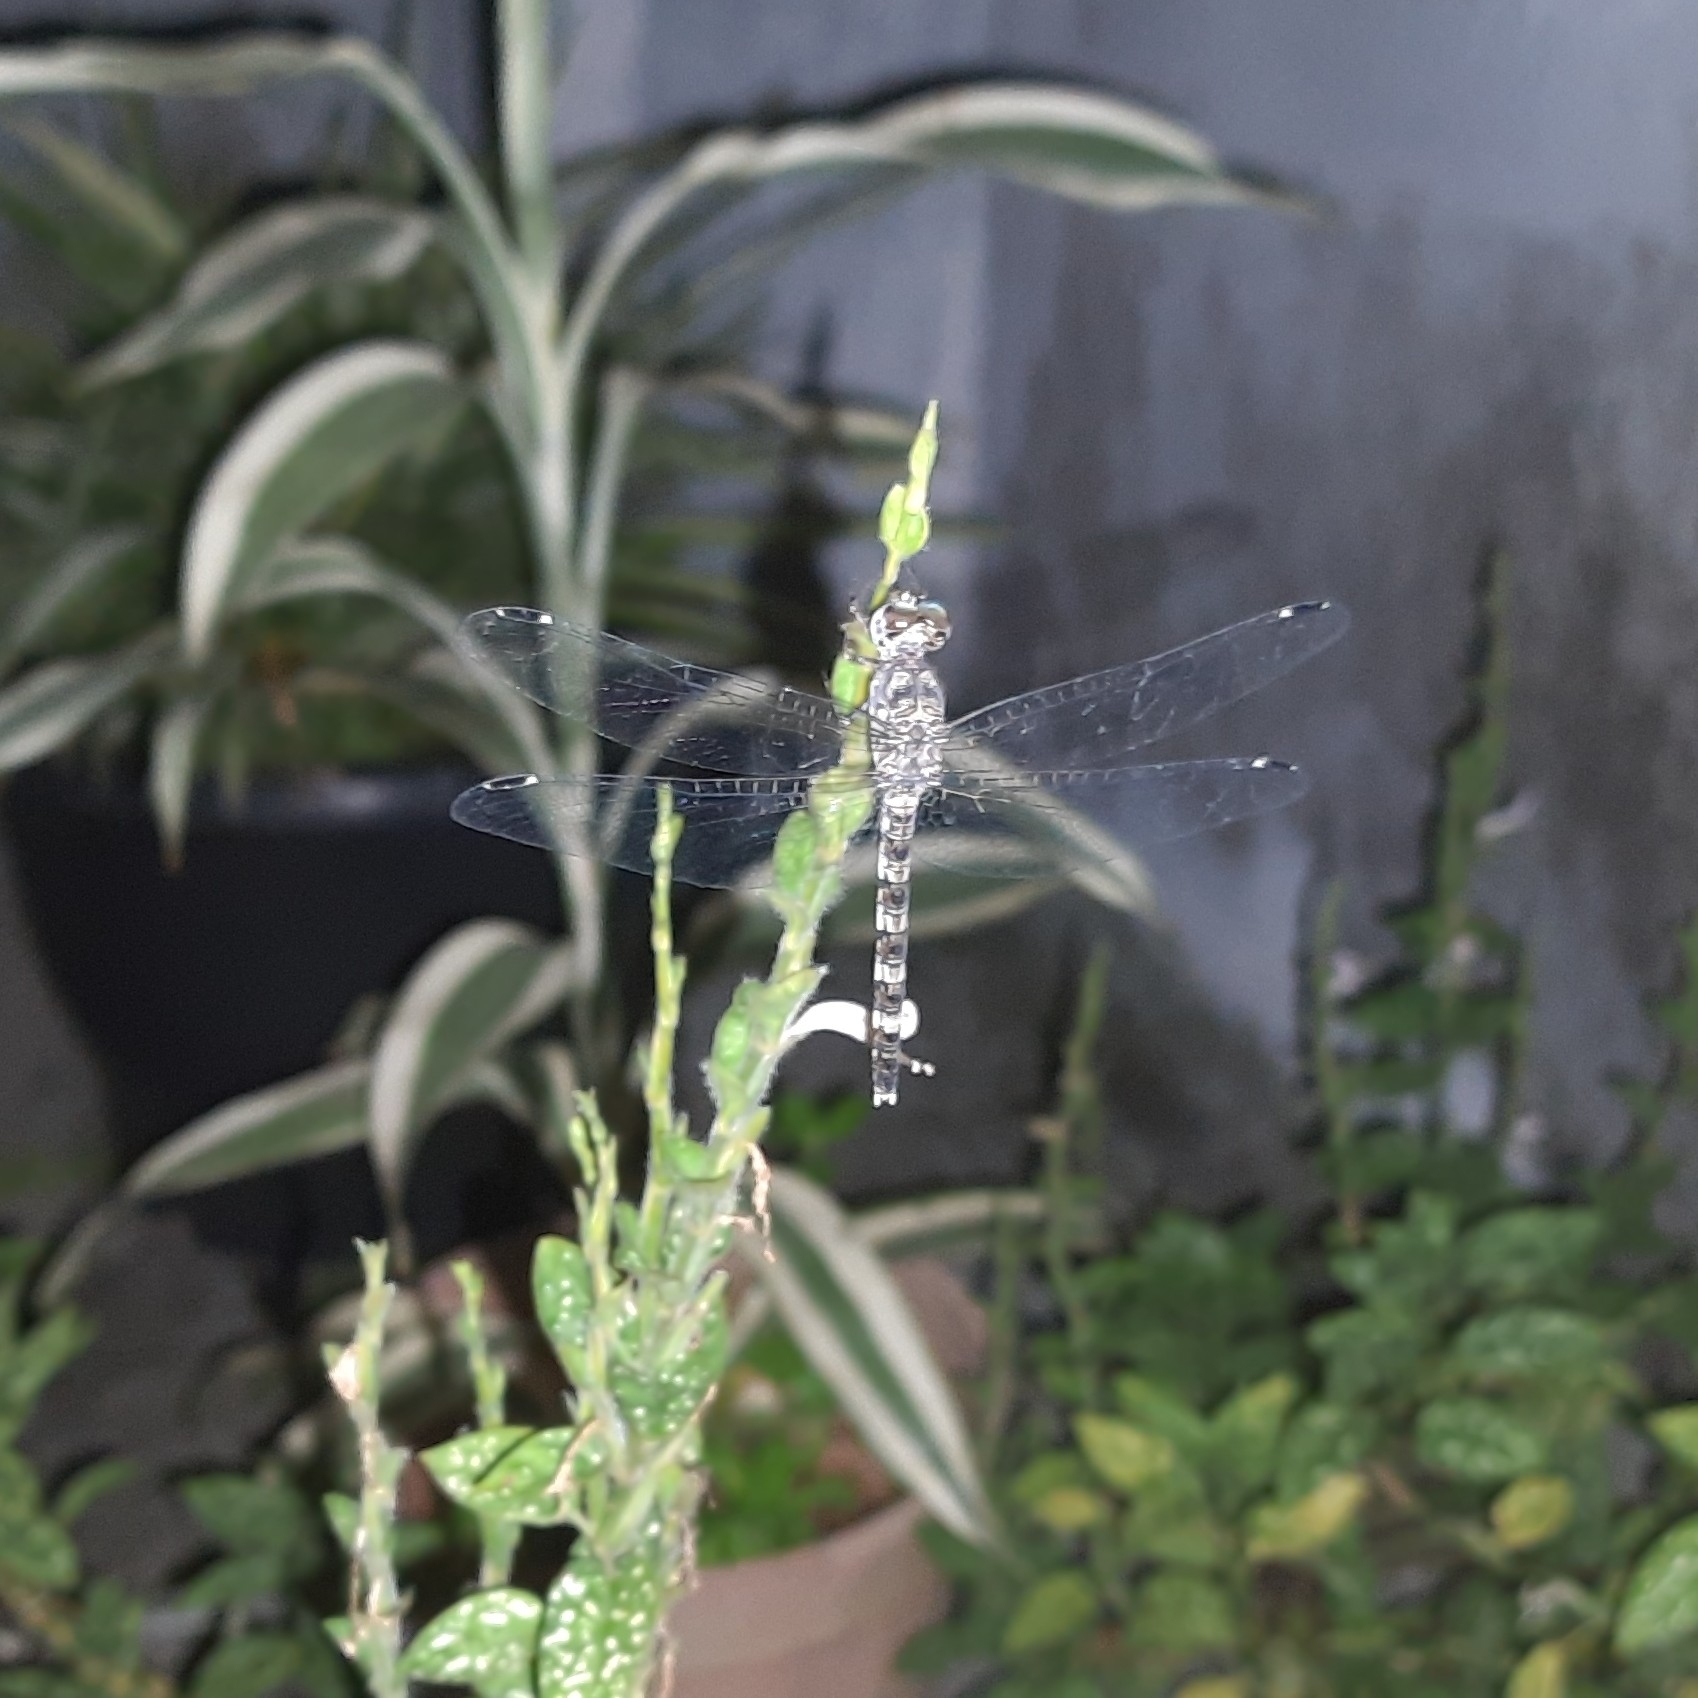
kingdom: Animalia
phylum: Arthropoda
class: Insecta
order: Odonata
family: Libellulidae
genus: Bradinopyga
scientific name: Bradinopyga geminata
